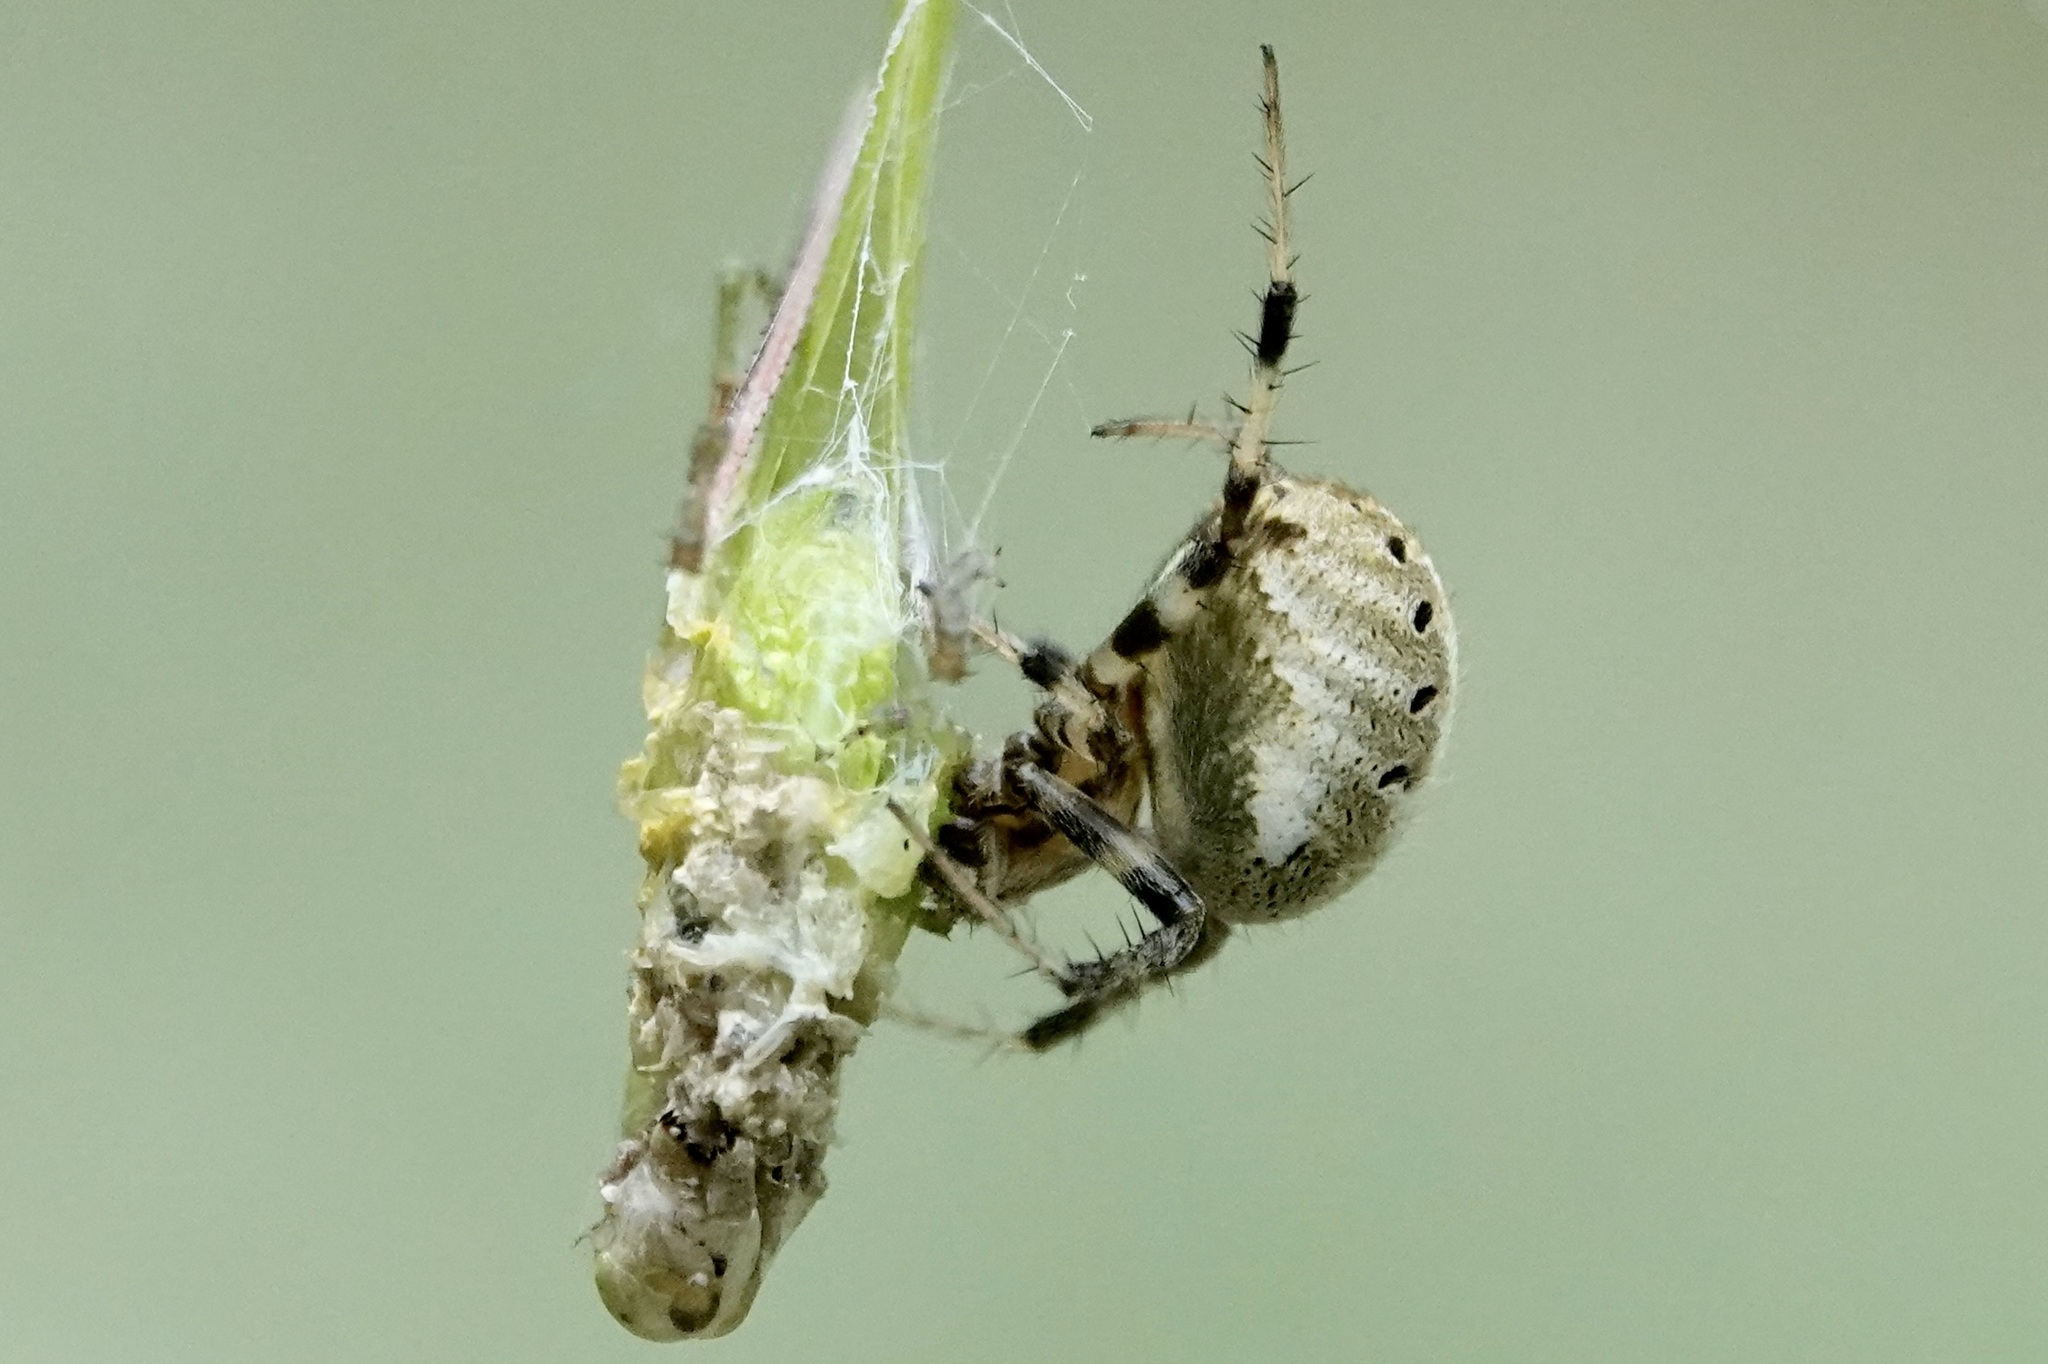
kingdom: Animalia
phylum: Arthropoda
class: Arachnida
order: Araneae
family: Araneidae
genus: Neoscona
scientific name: Neoscona arabesca
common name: Orb weavers
